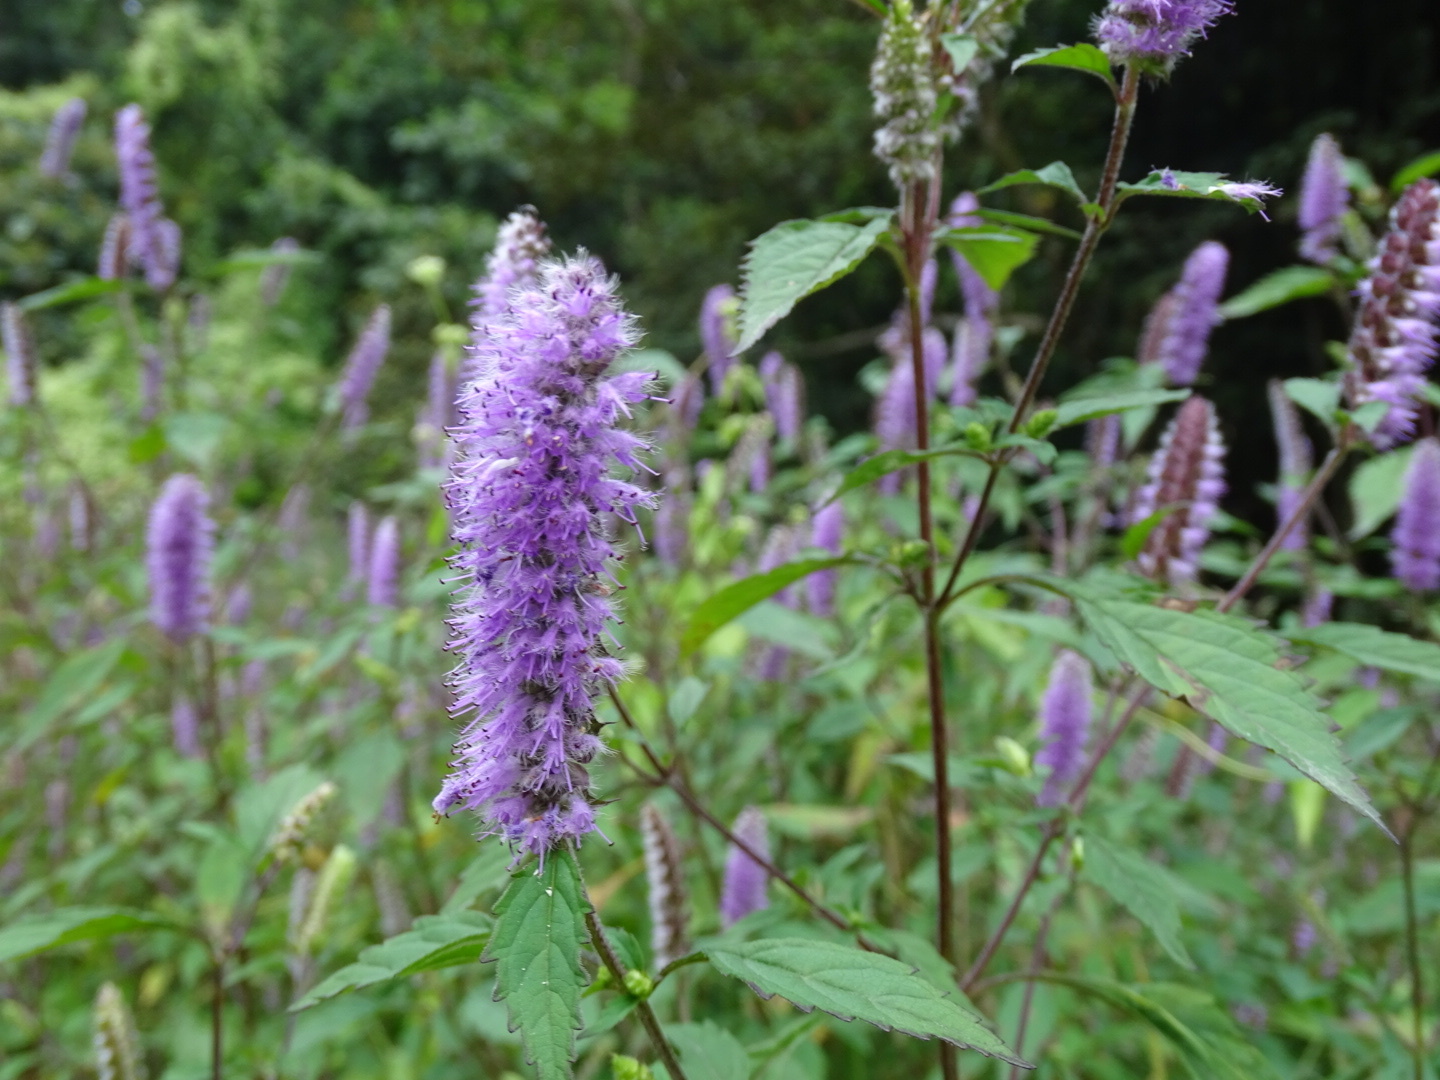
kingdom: Plantae
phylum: Tracheophyta
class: Magnoliopsida
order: Lamiales
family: Lamiaceae
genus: Elsholtzia
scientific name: Elsholtzia argyi
